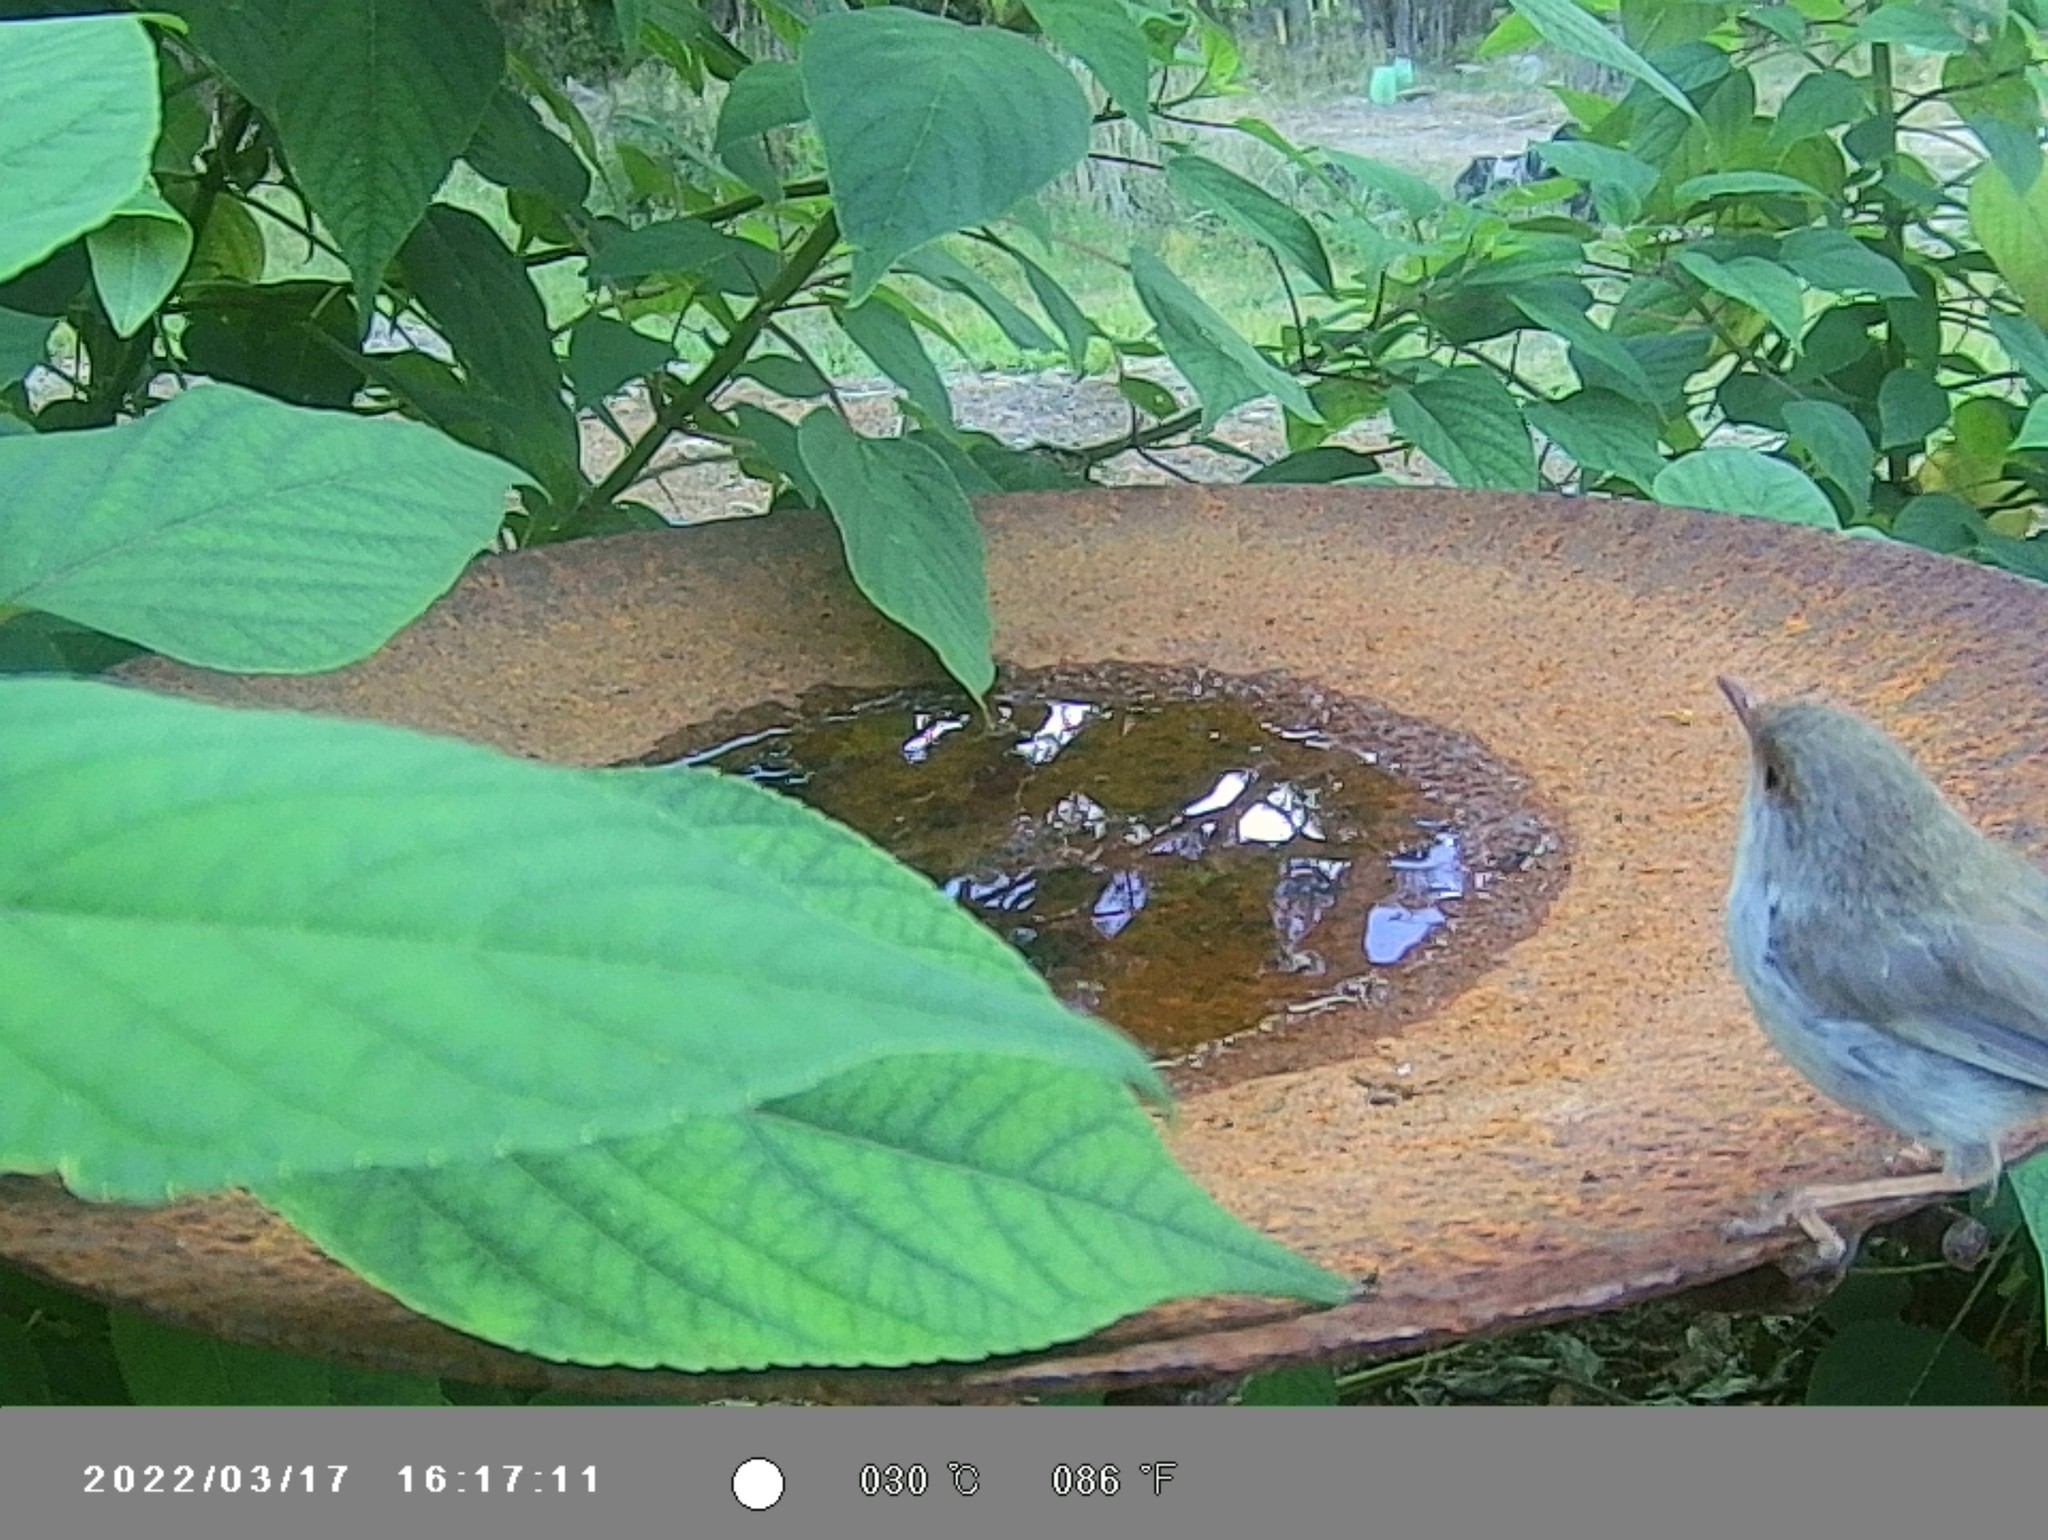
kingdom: Animalia
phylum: Chordata
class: Aves
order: Passeriformes
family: Maluridae
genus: Malurus
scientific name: Malurus cyaneus
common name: Superb fairywren
